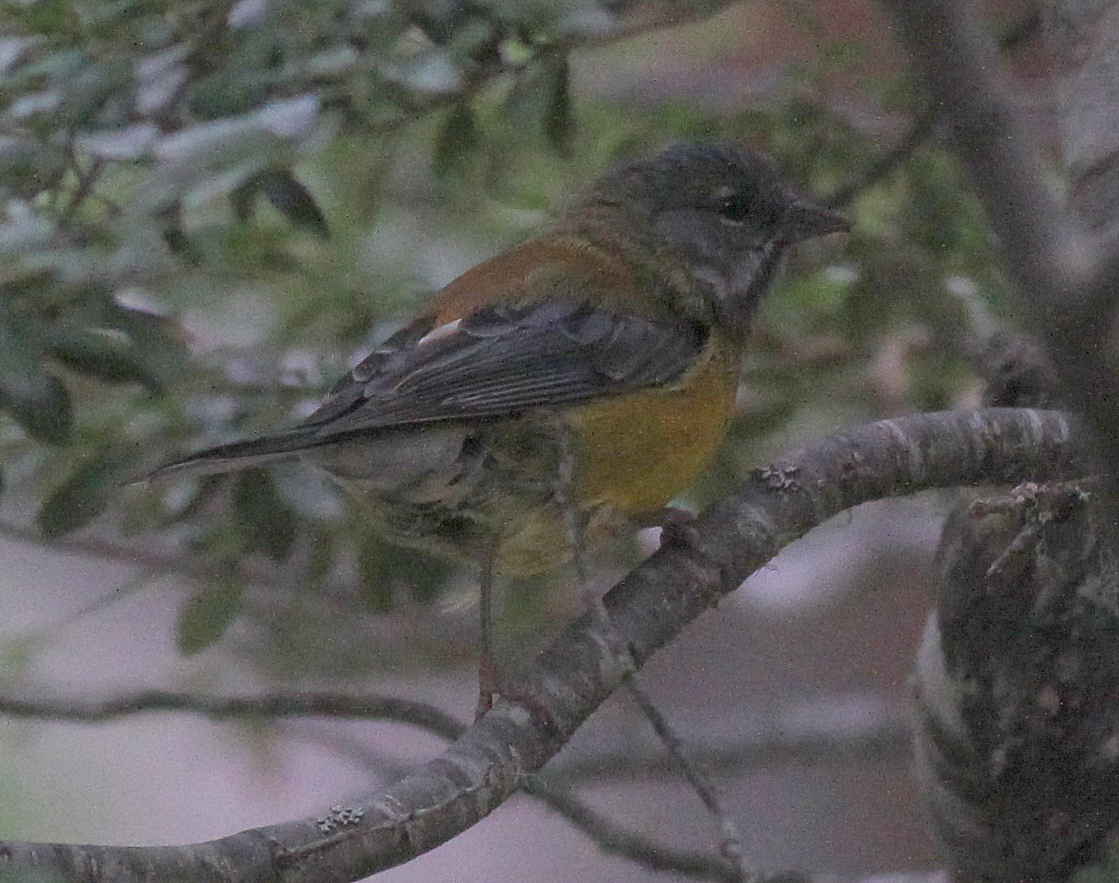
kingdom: Animalia
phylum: Chordata
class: Aves
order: Passeriformes
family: Thraupidae
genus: Phrygilus
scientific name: Phrygilus patagonicus
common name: Patagonian sierra finch
